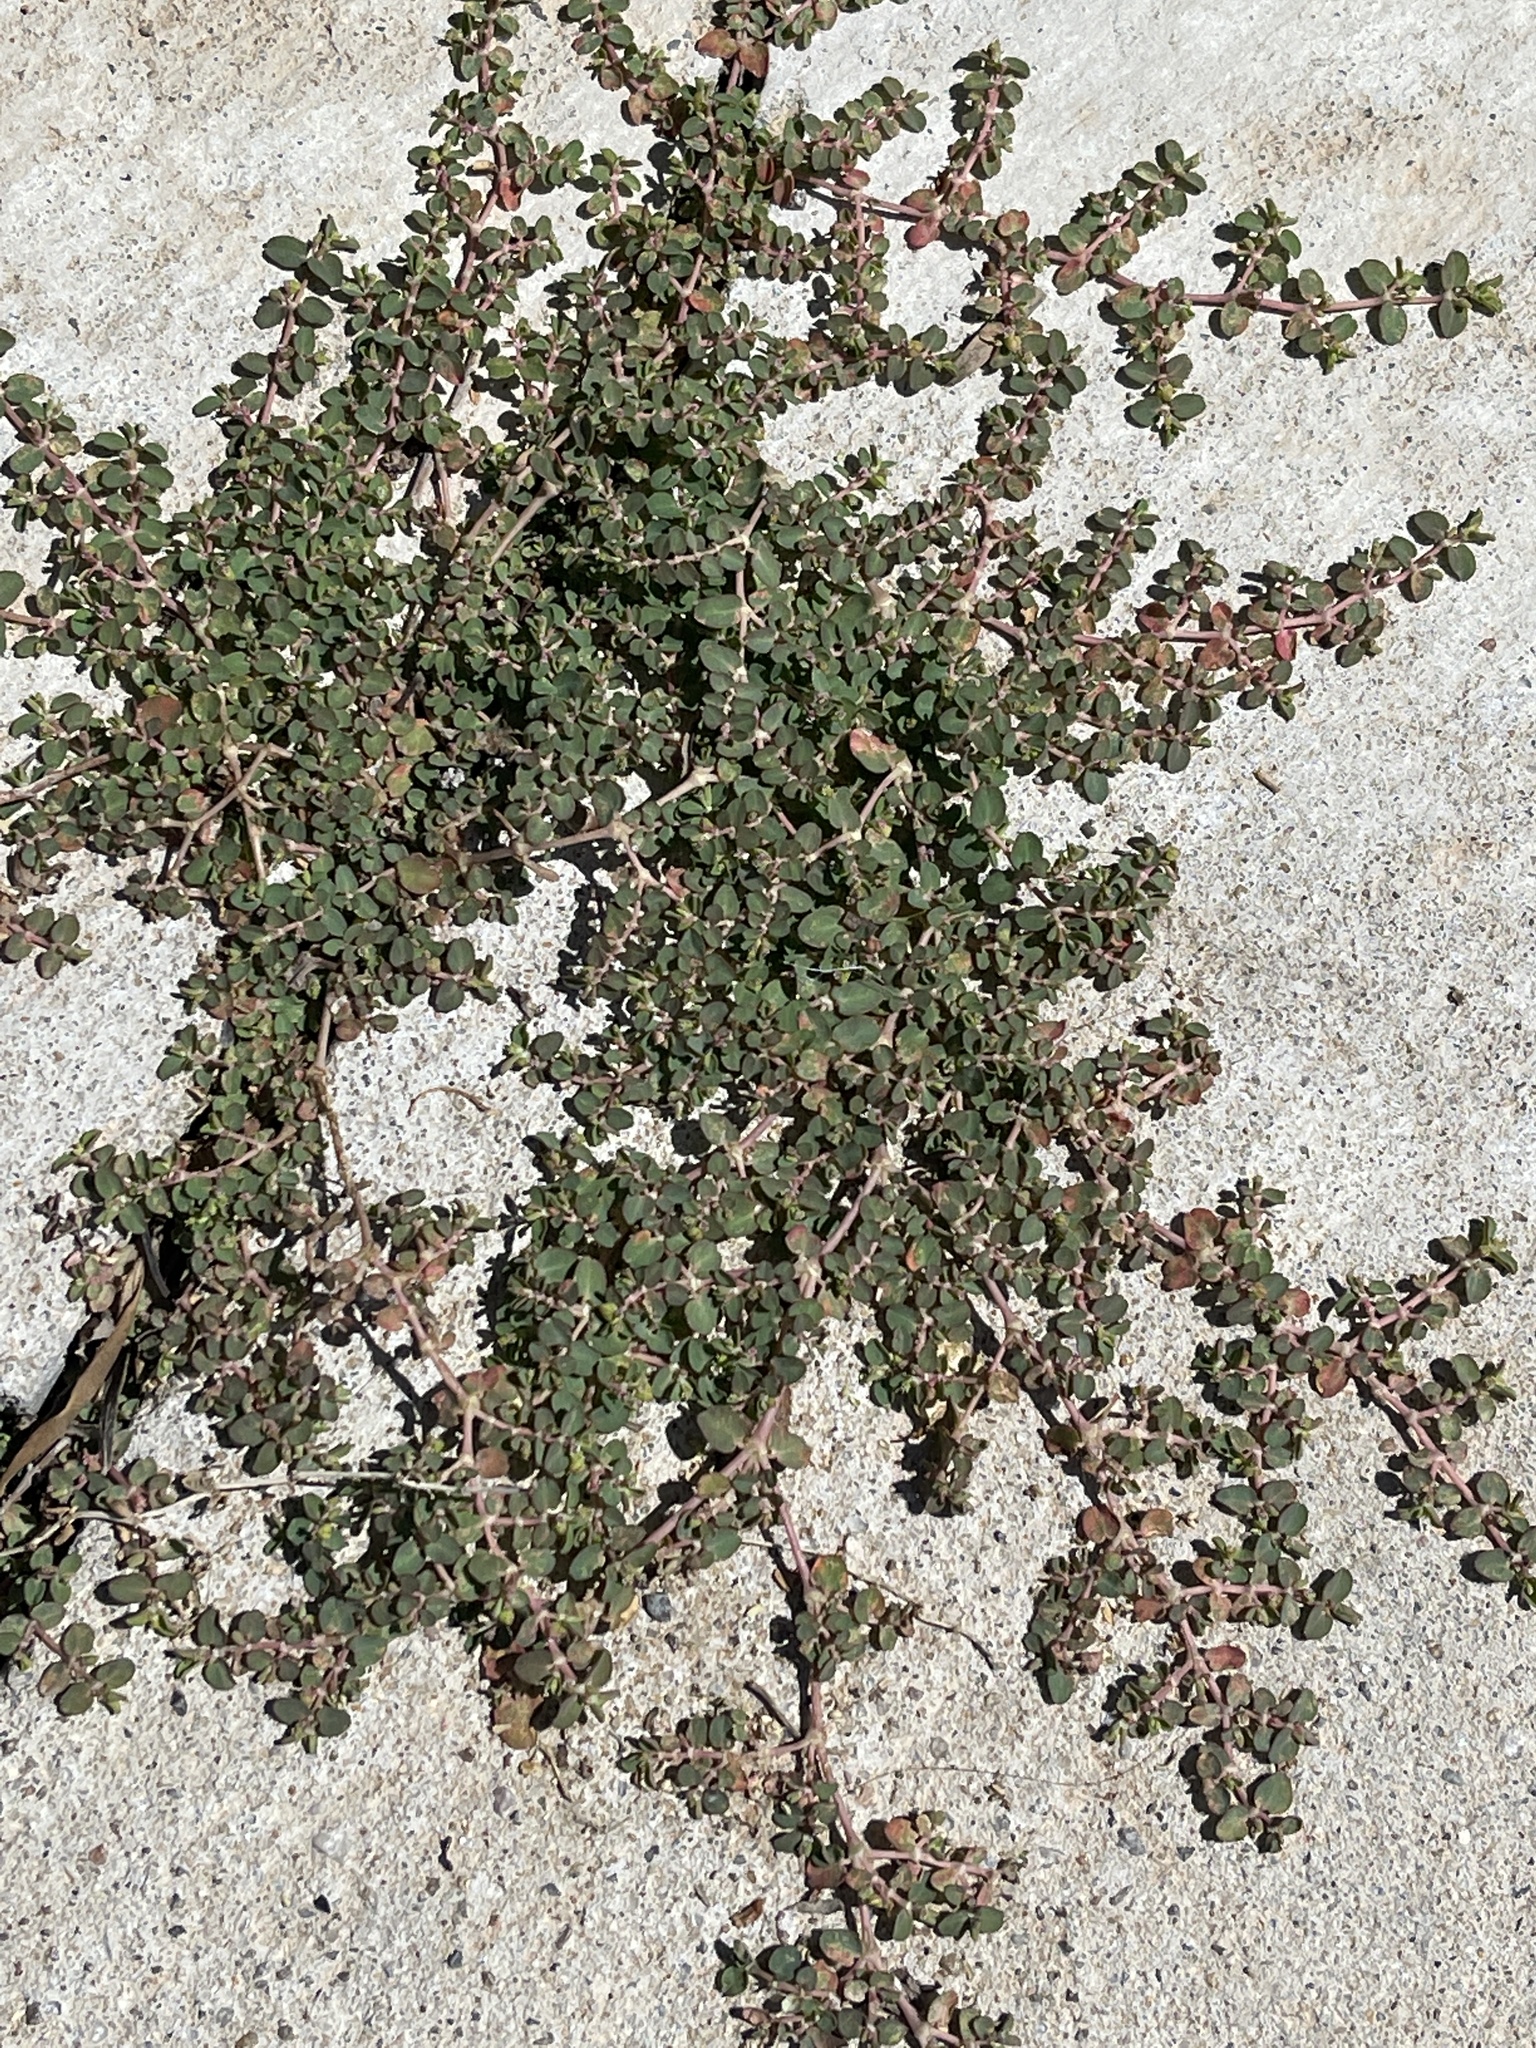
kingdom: Plantae
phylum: Tracheophyta
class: Magnoliopsida
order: Malpighiales
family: Euphorbiaceae
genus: Euphorbia
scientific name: Euphorbia serpens
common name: Matted sandmat
